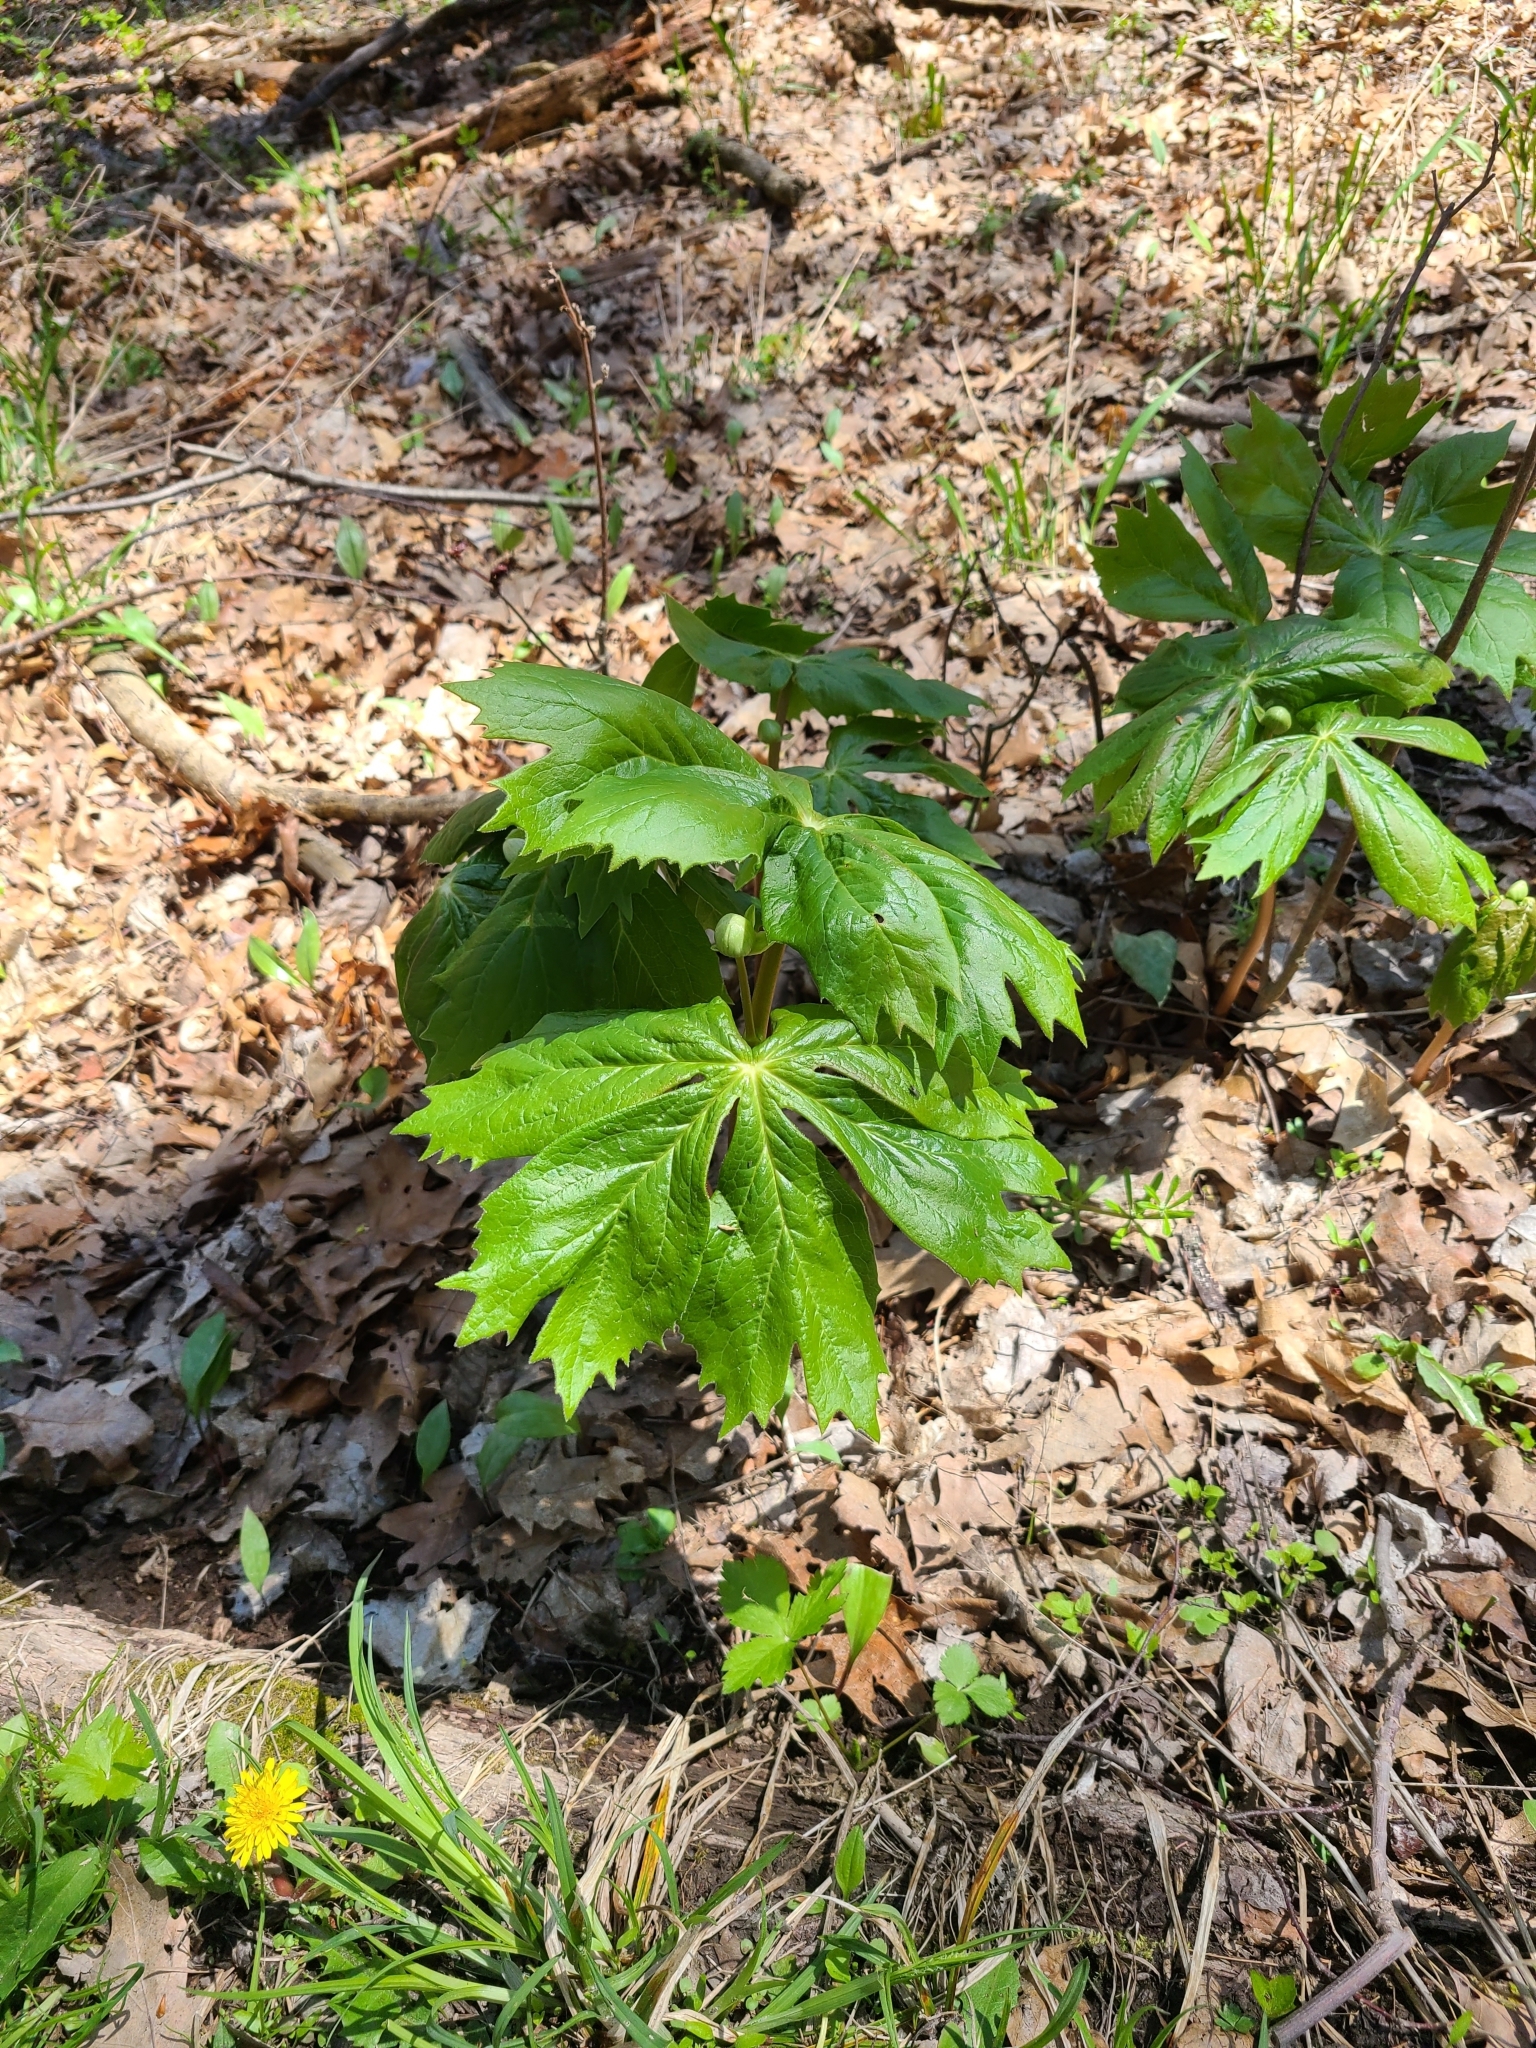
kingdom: Plantae
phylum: Tracheophyta
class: Magnoliopsida
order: Ranunculales
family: Berberidaceae
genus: Podophyllum
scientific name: Podophyllum peltatum
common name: Wild mandrake
